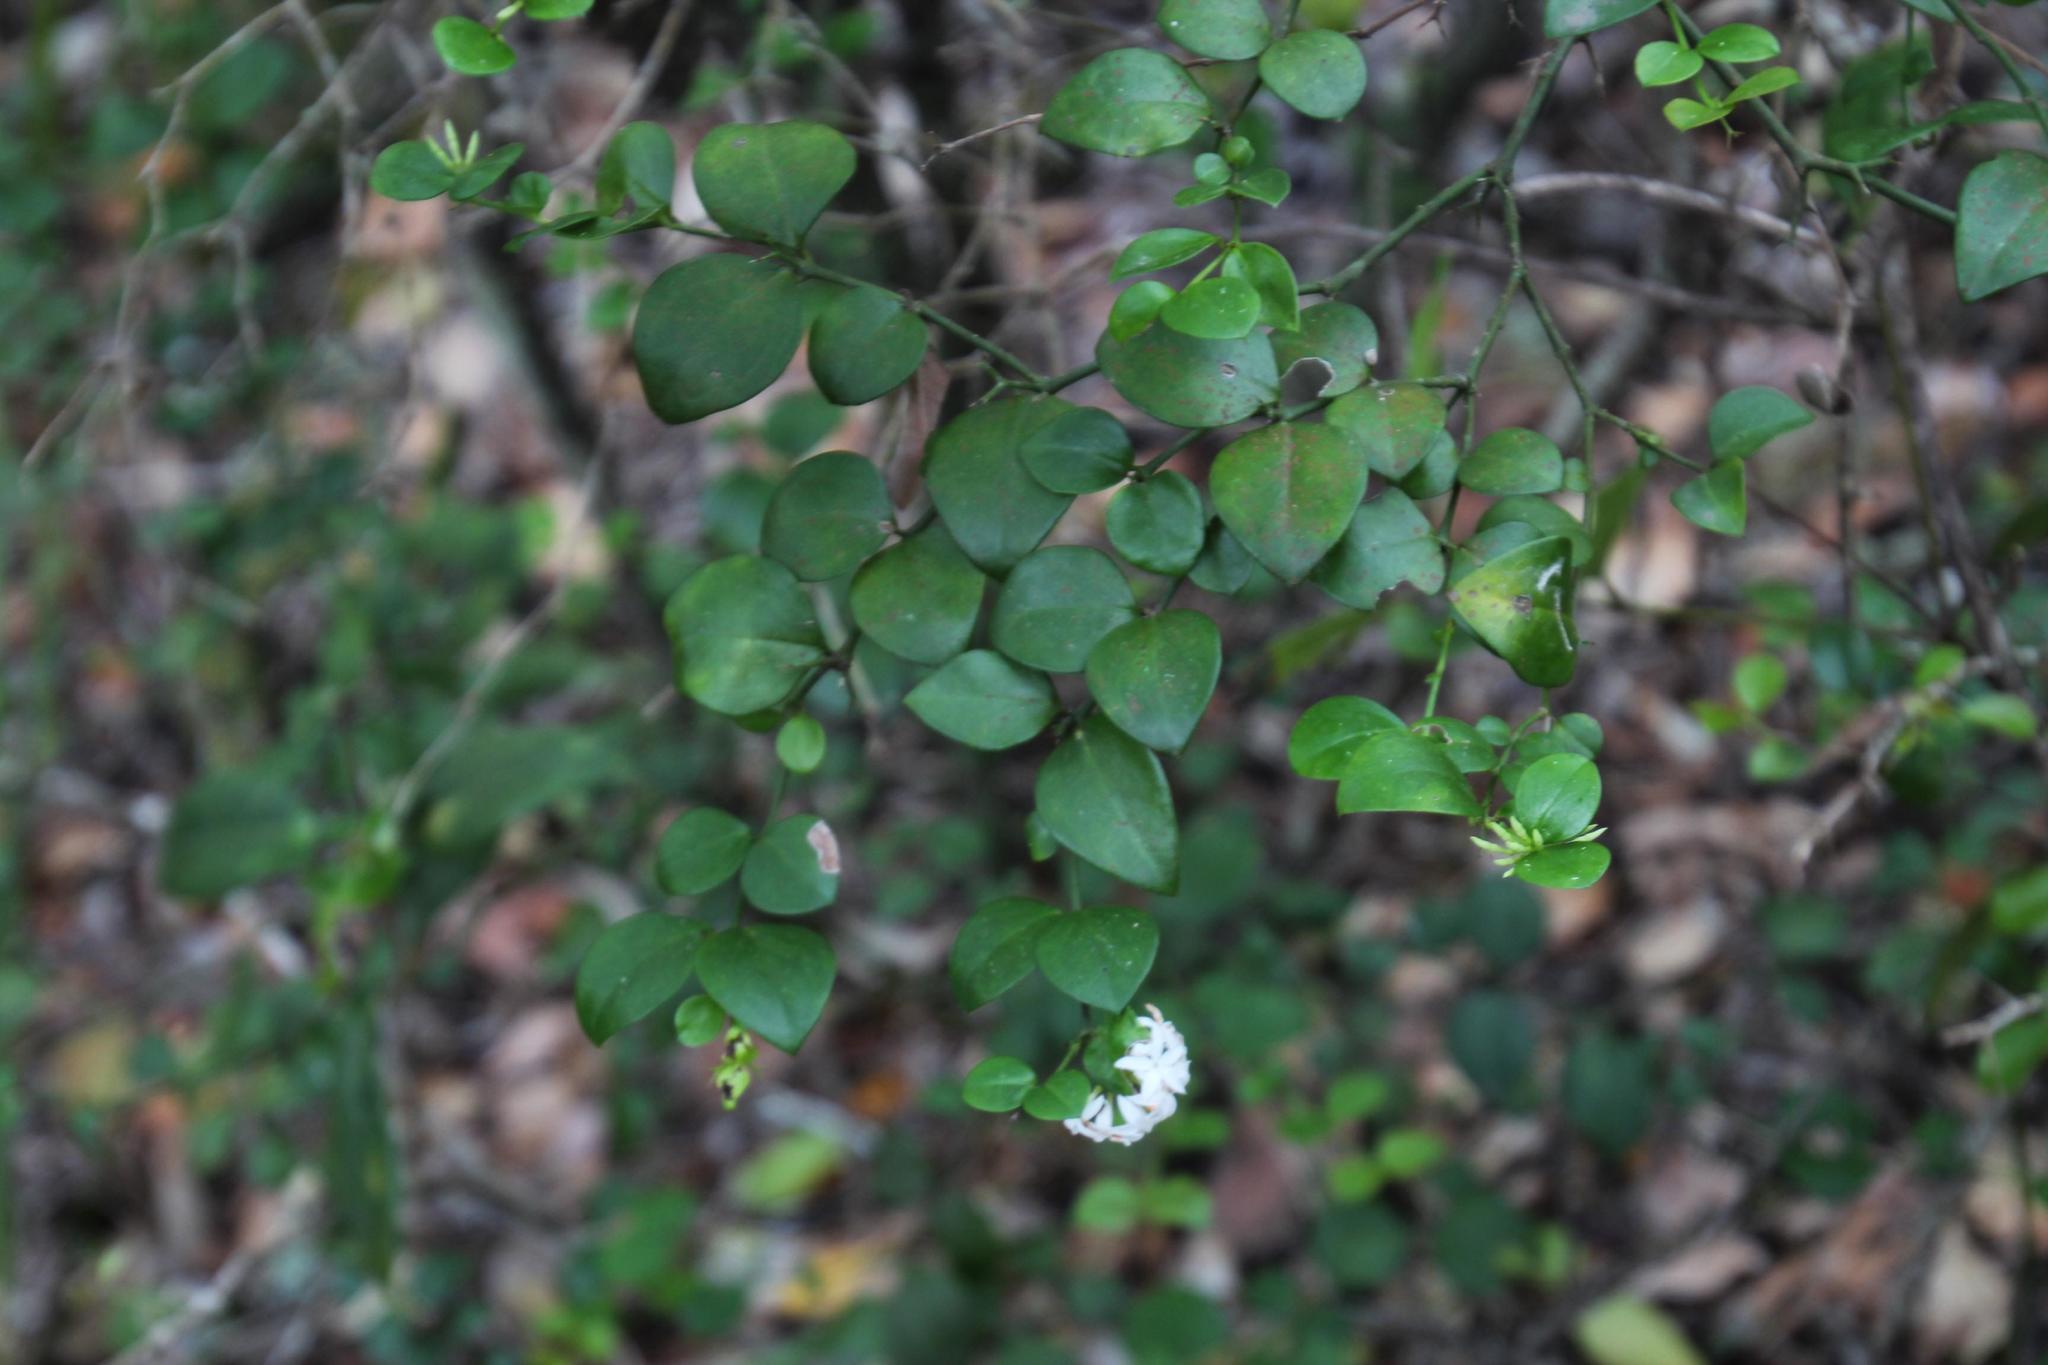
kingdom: Plantae
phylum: Tracheophyta
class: Magnoliopsida
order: Gentianales
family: Apocynaceae
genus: Carissa
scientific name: Carissa bispinosa
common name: Forest num-num
